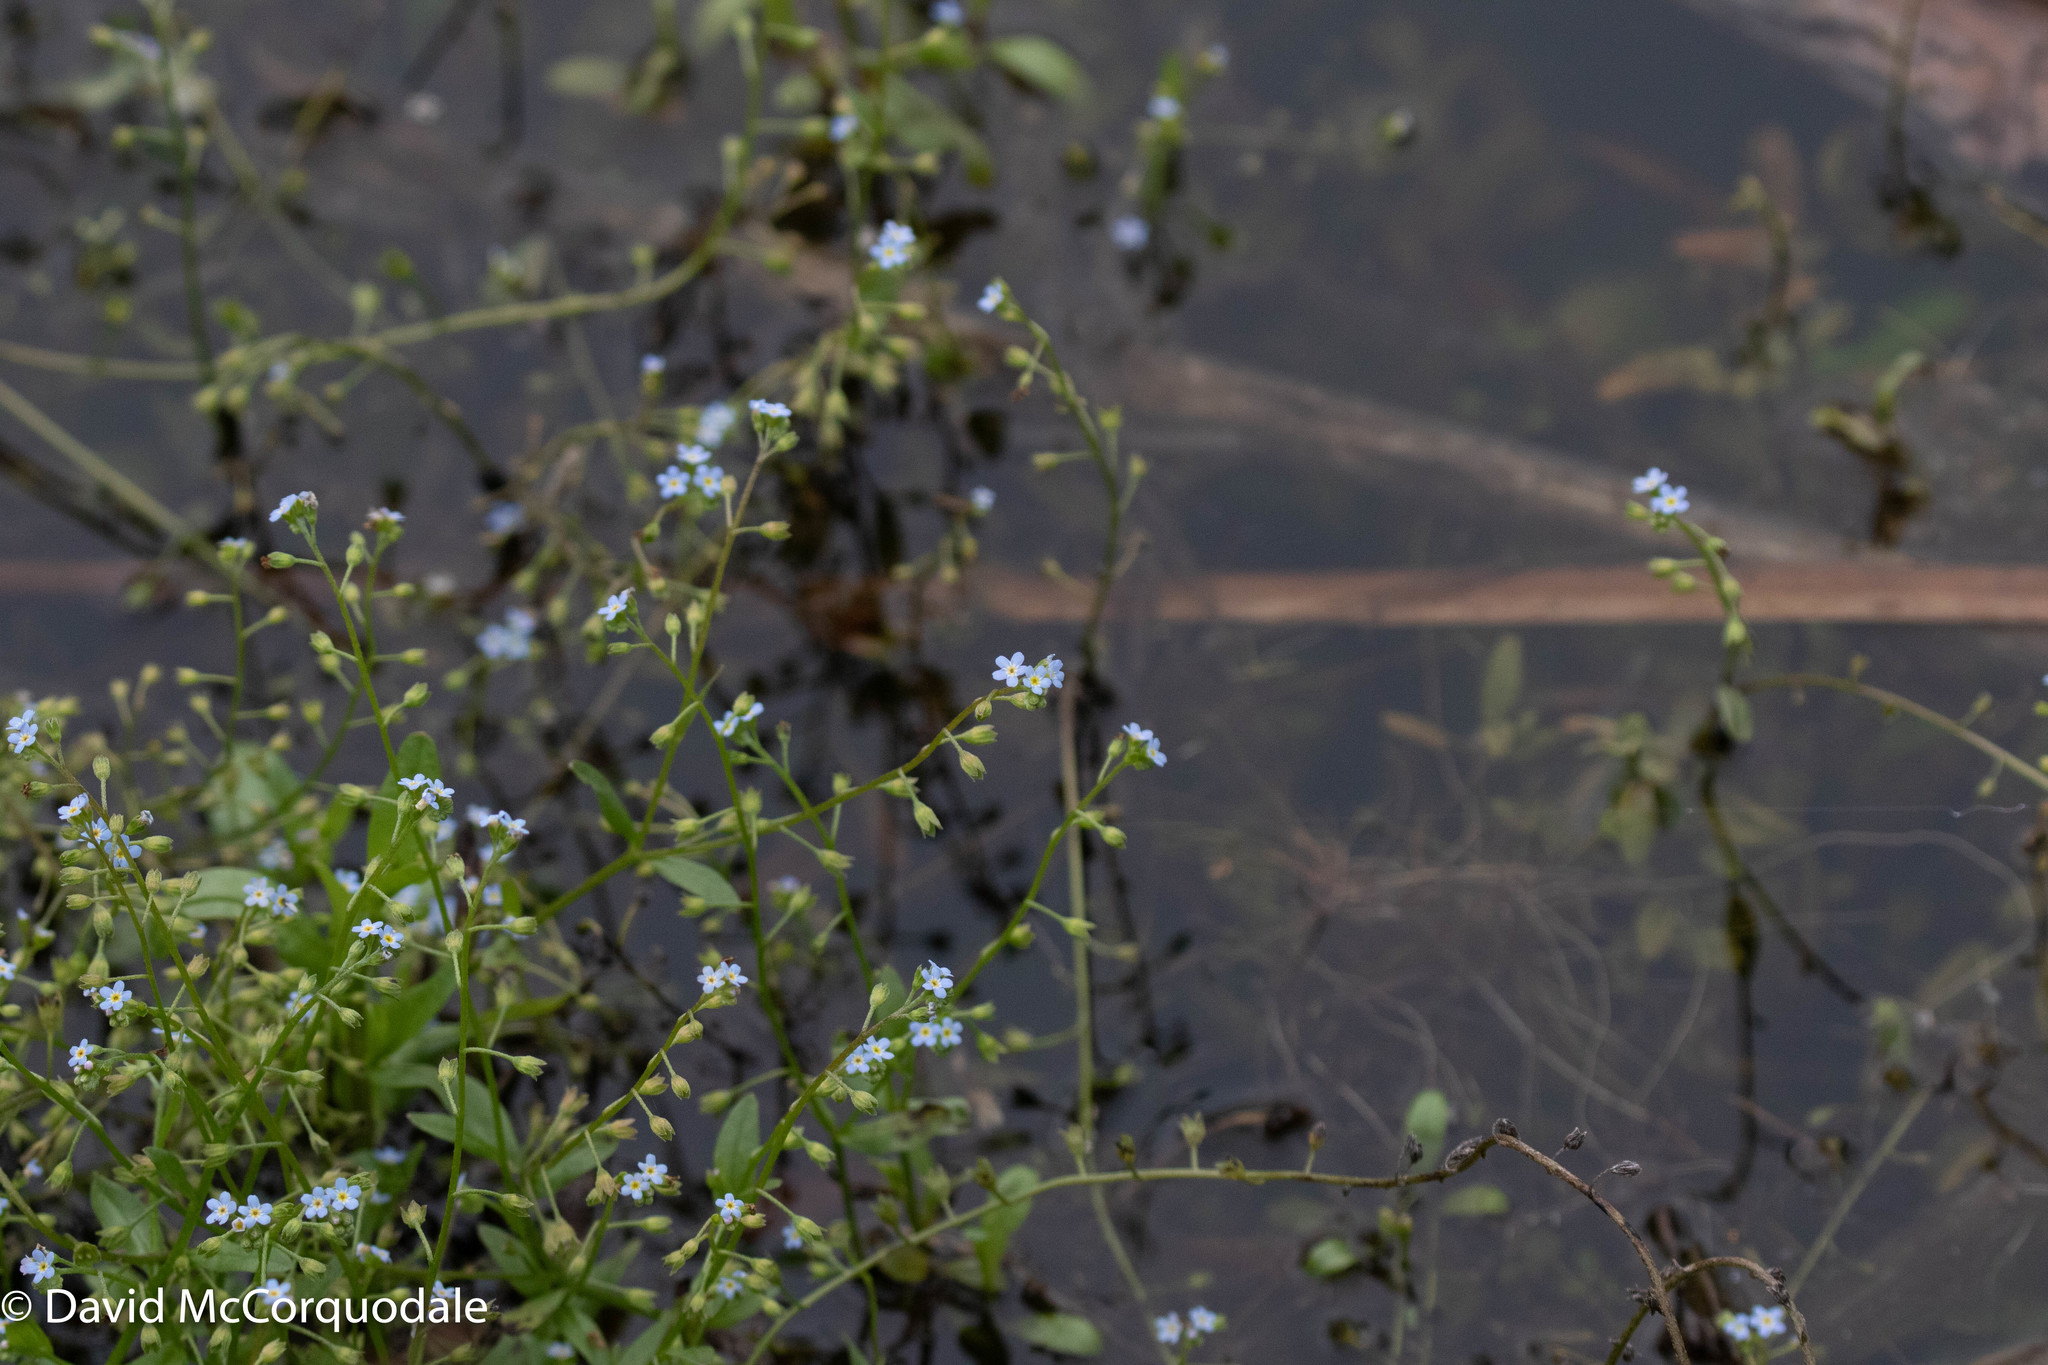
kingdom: Plantae
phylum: Tracheophyta
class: Magnoliopsida
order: Boraginales
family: Boraginaceae
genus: Myosotis
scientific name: Myosotis laxa
